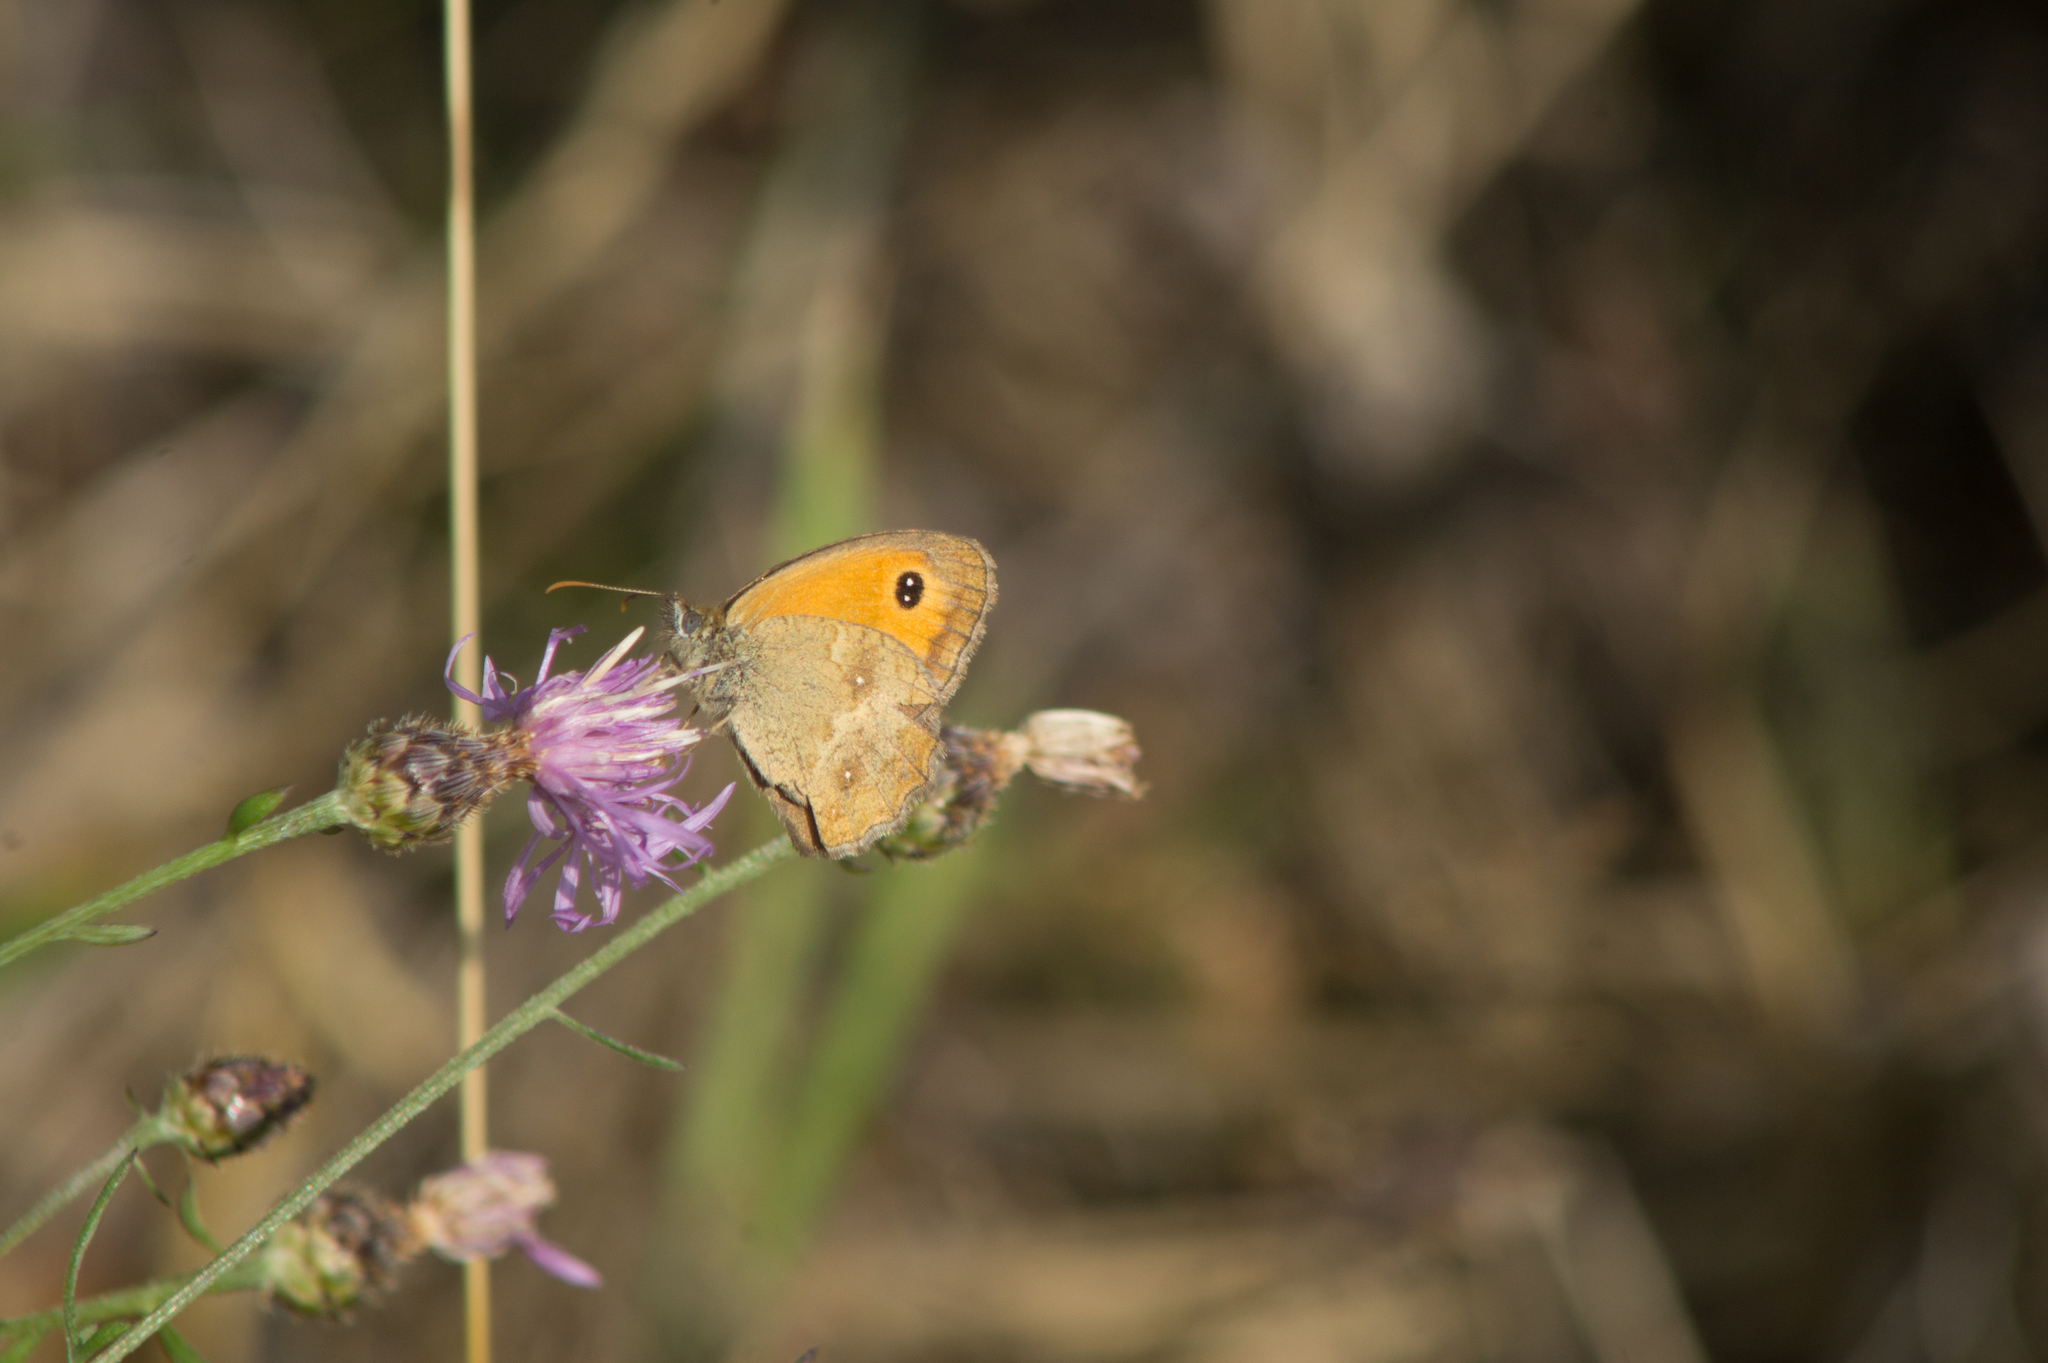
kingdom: Animalia
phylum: Arthropoda
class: Insecta
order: Lepidoptera
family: Nymphalidae
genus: Pyronia
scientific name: Pyronia tithonus
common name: Gatekeeper
